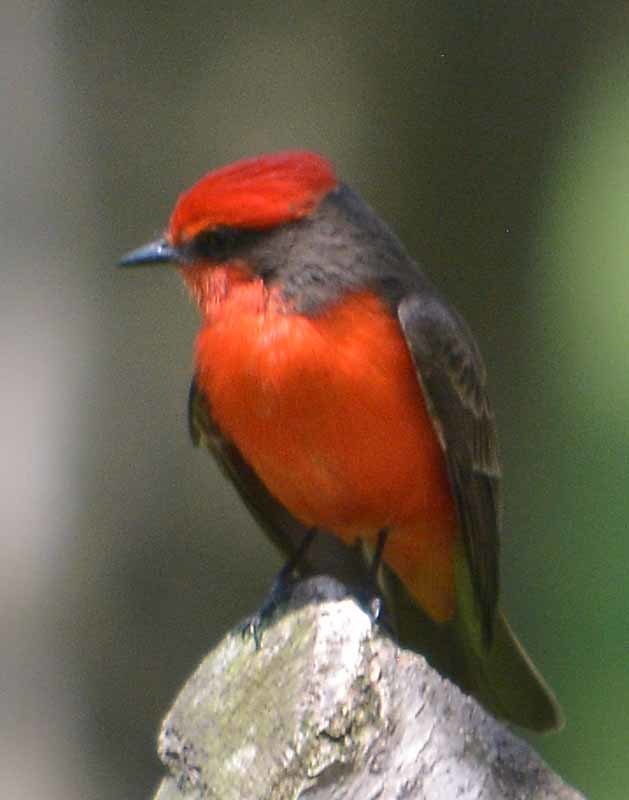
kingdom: Animalia
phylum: Chordata
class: Aves
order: Passeriformes
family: Tyrannidae
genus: Pyrocephalus
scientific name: Pyrocephalus rubinus
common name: Vermilion flycatcher
